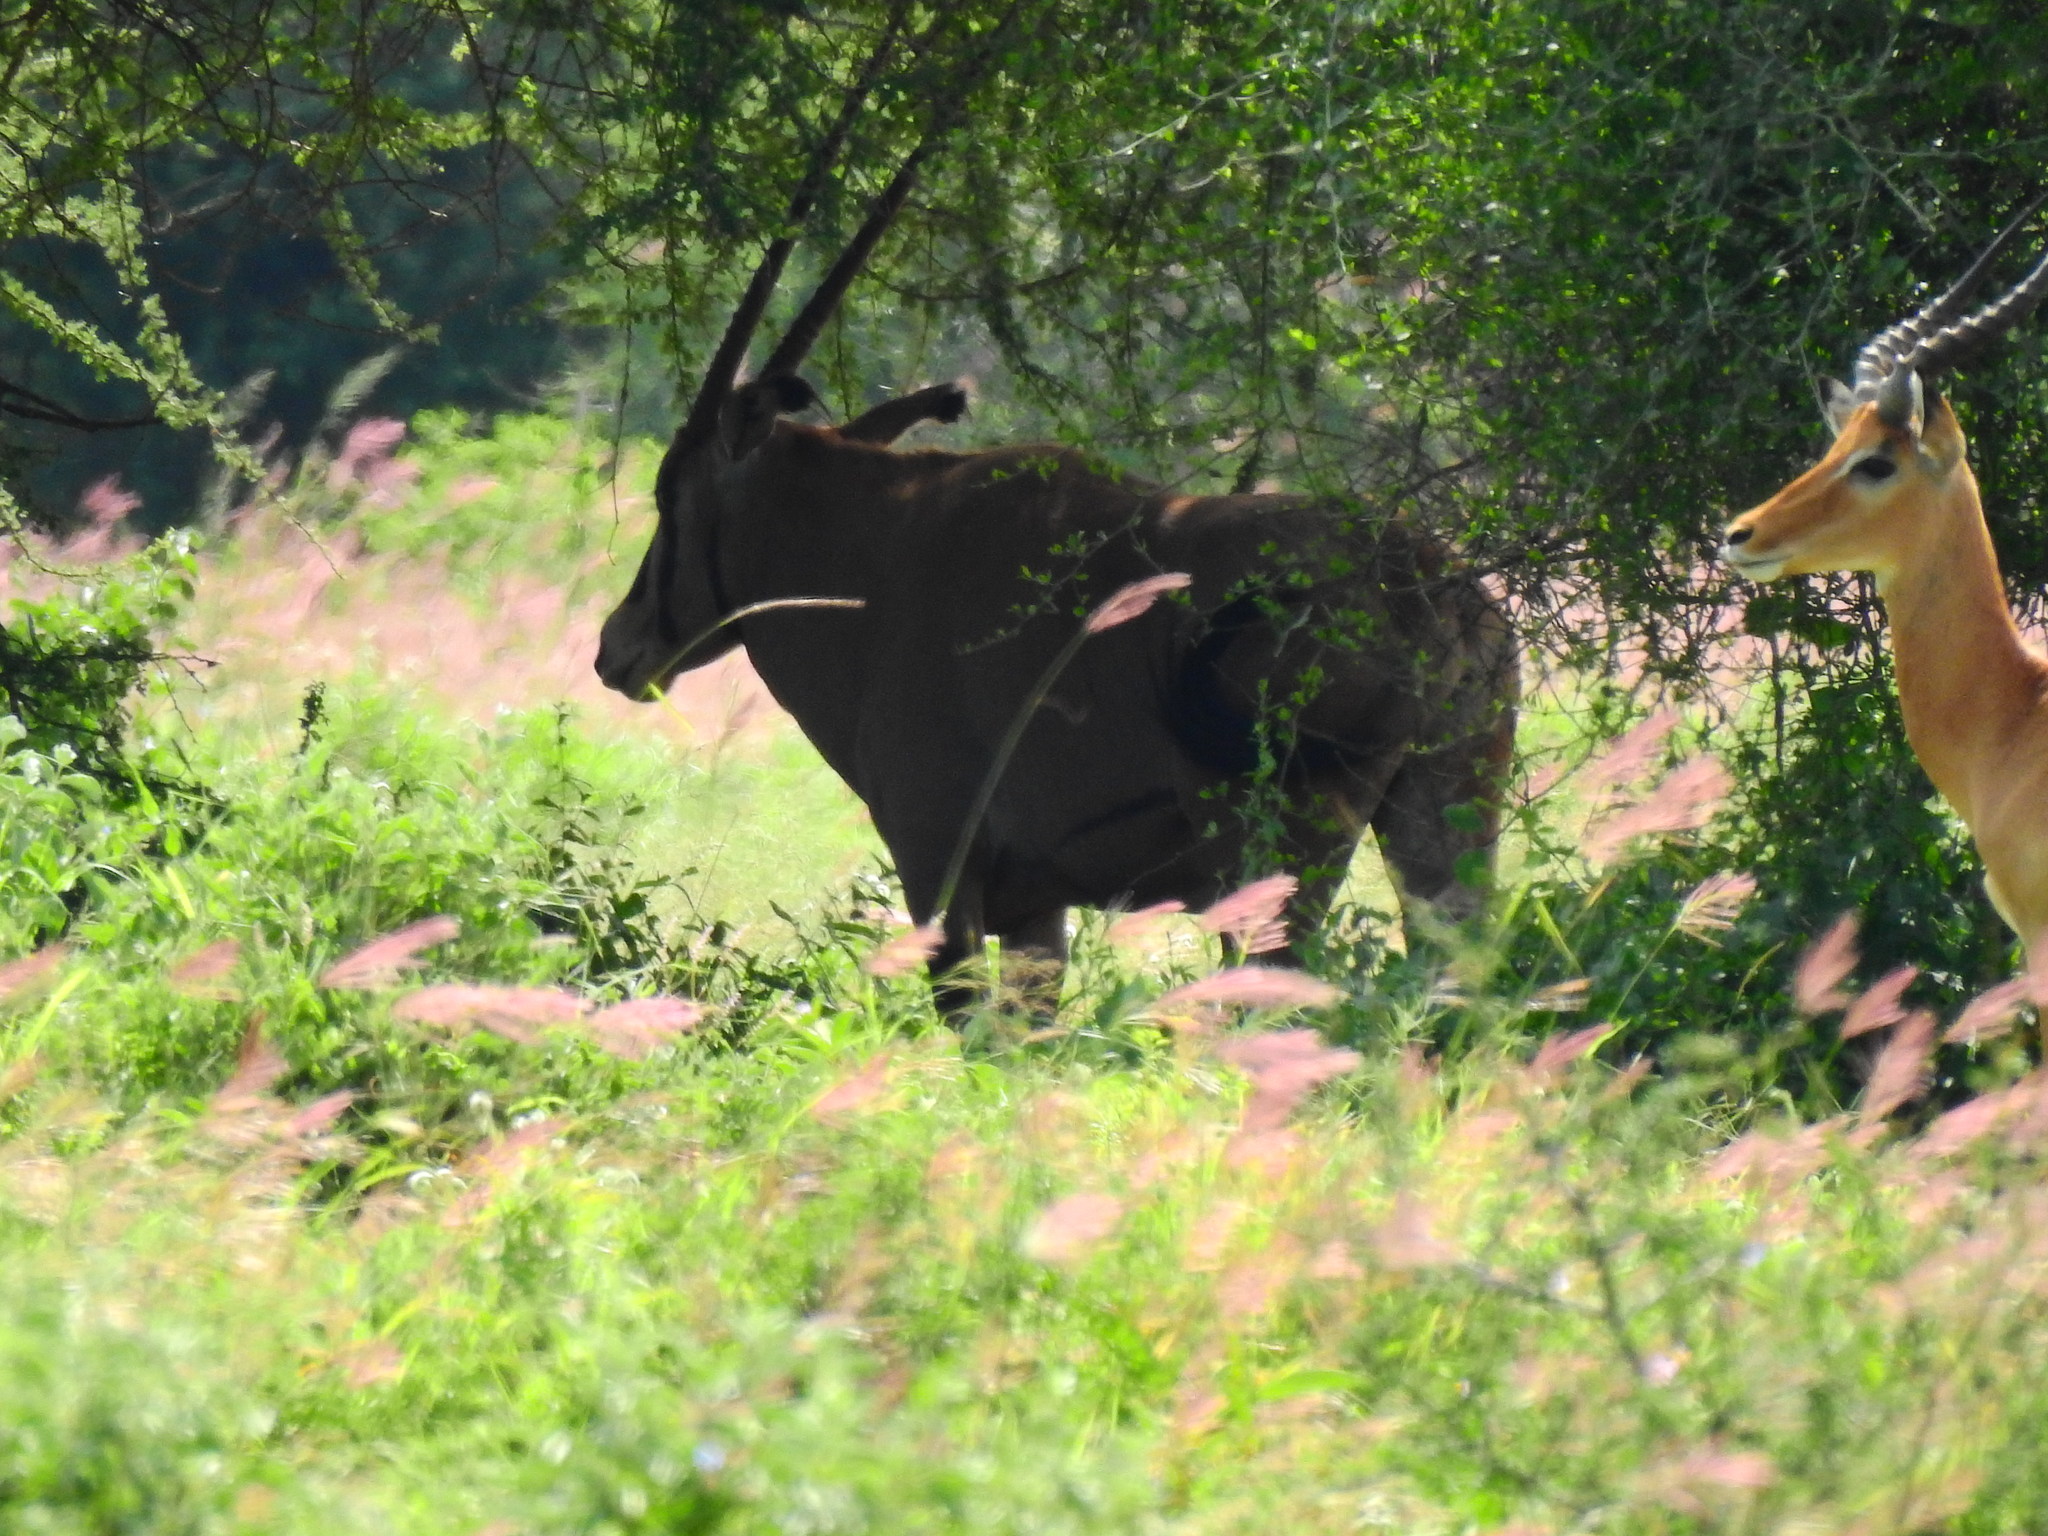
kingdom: Animalia
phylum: Chordata
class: Mammalia
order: Artiodactyla
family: Bovidae
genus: Oryx
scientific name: Oryx beisa
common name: Beisa
